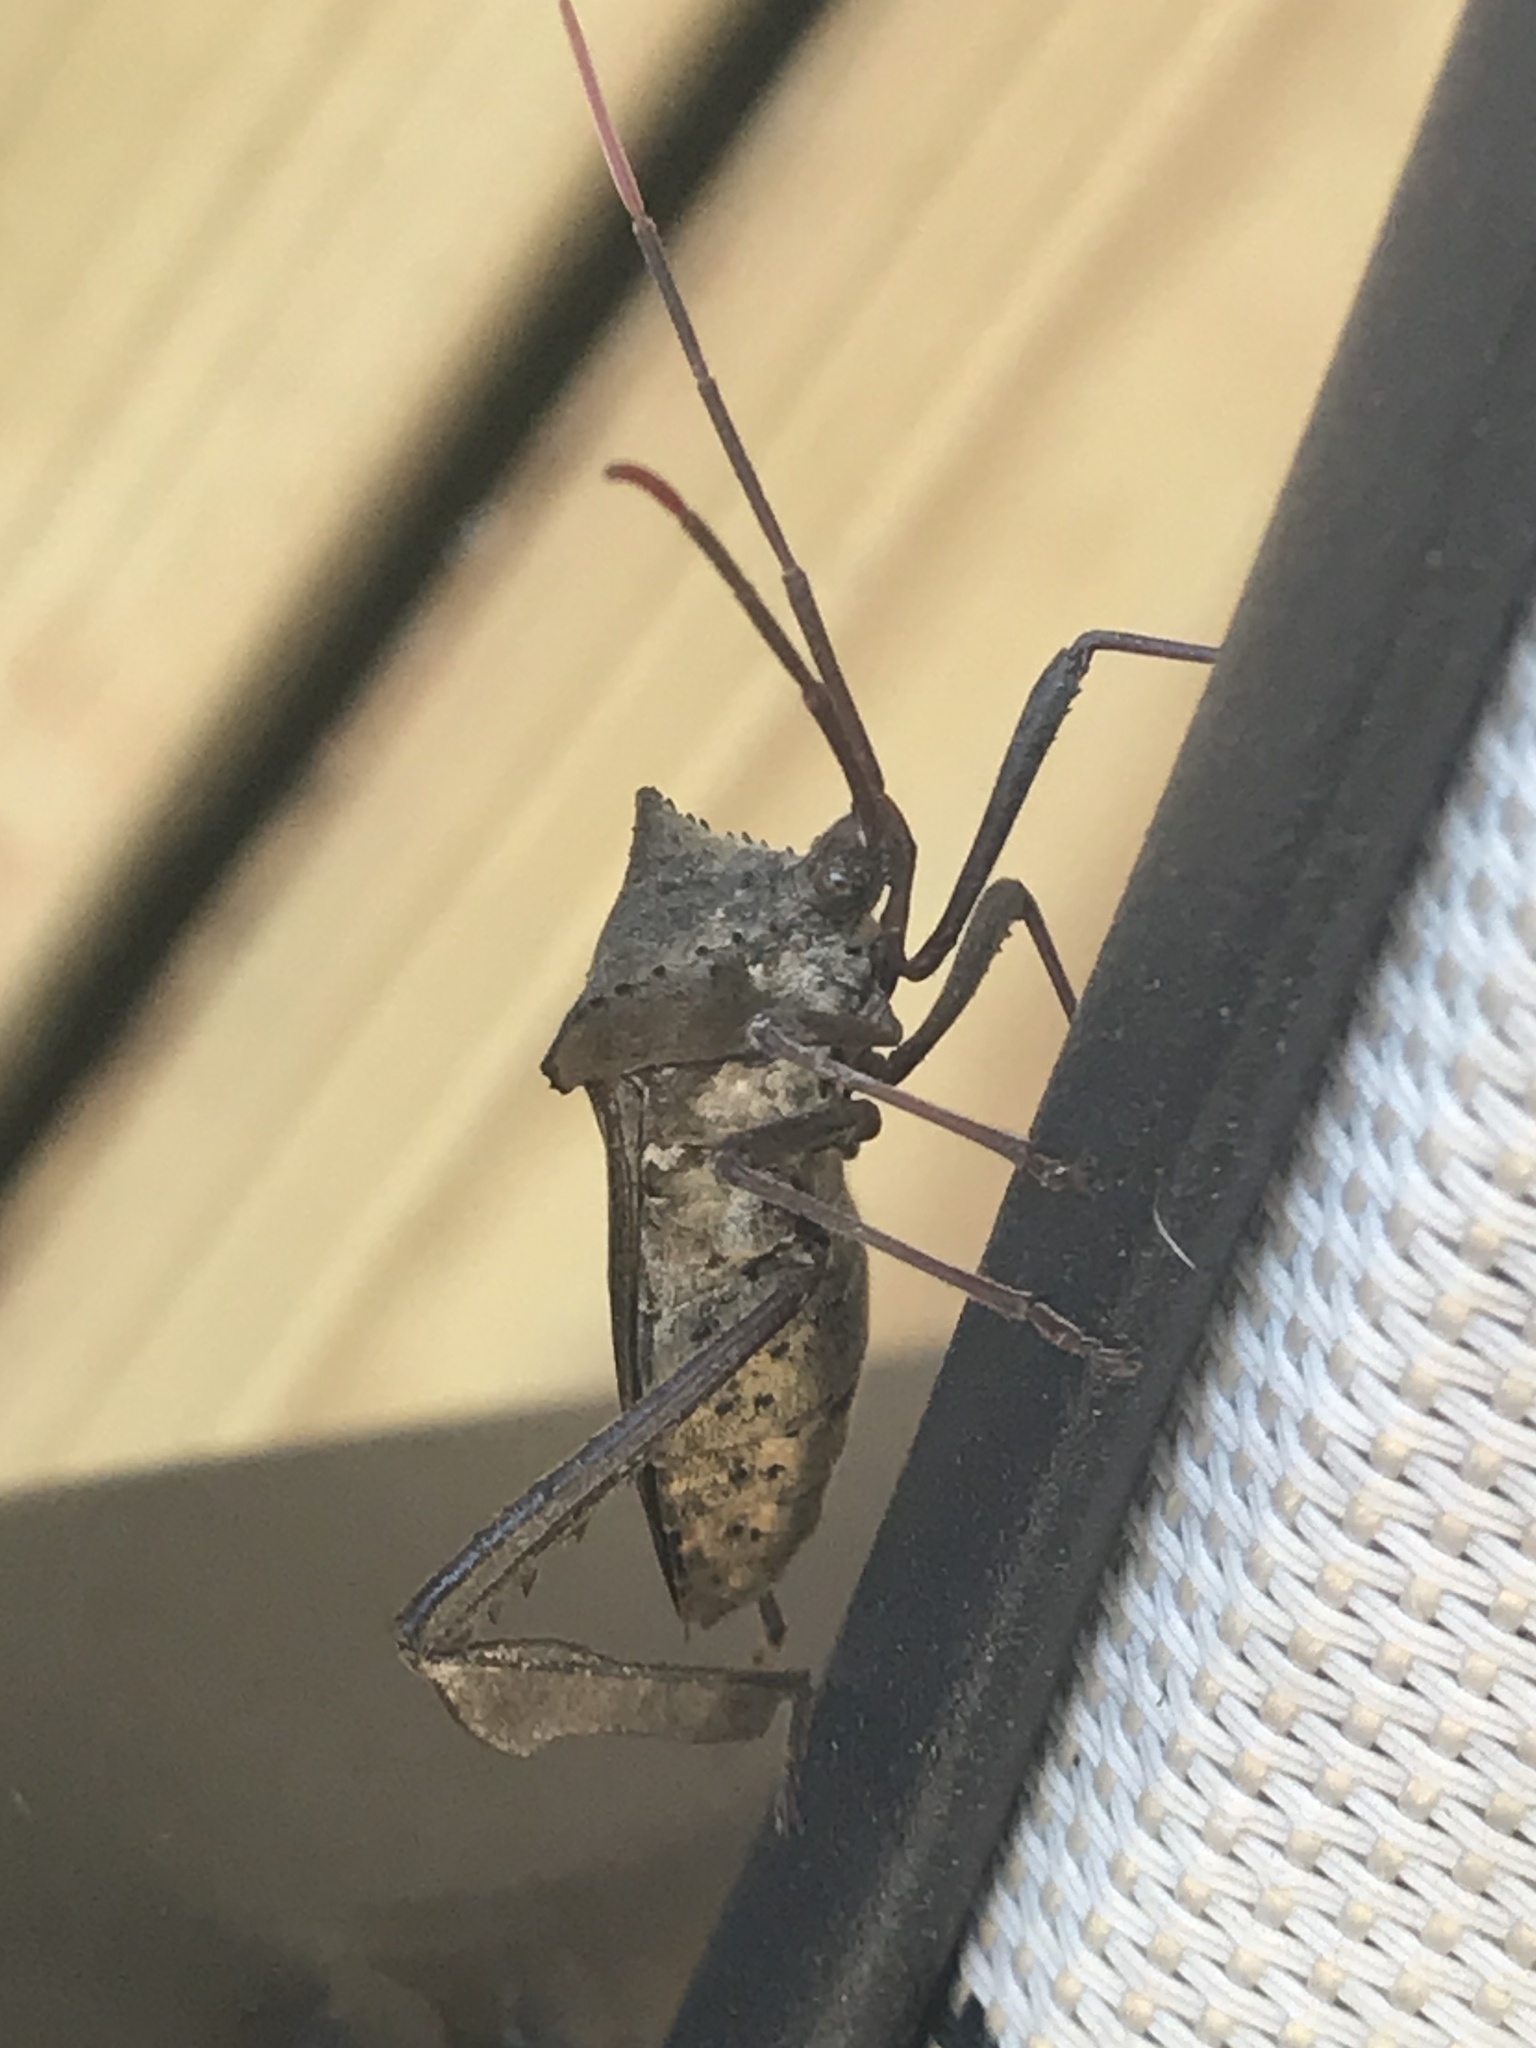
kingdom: Animalia
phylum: Arthropoda
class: Insecta
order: Hemiptera
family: Coreidae
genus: Acanthocephala
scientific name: Acanthocephala declivis
